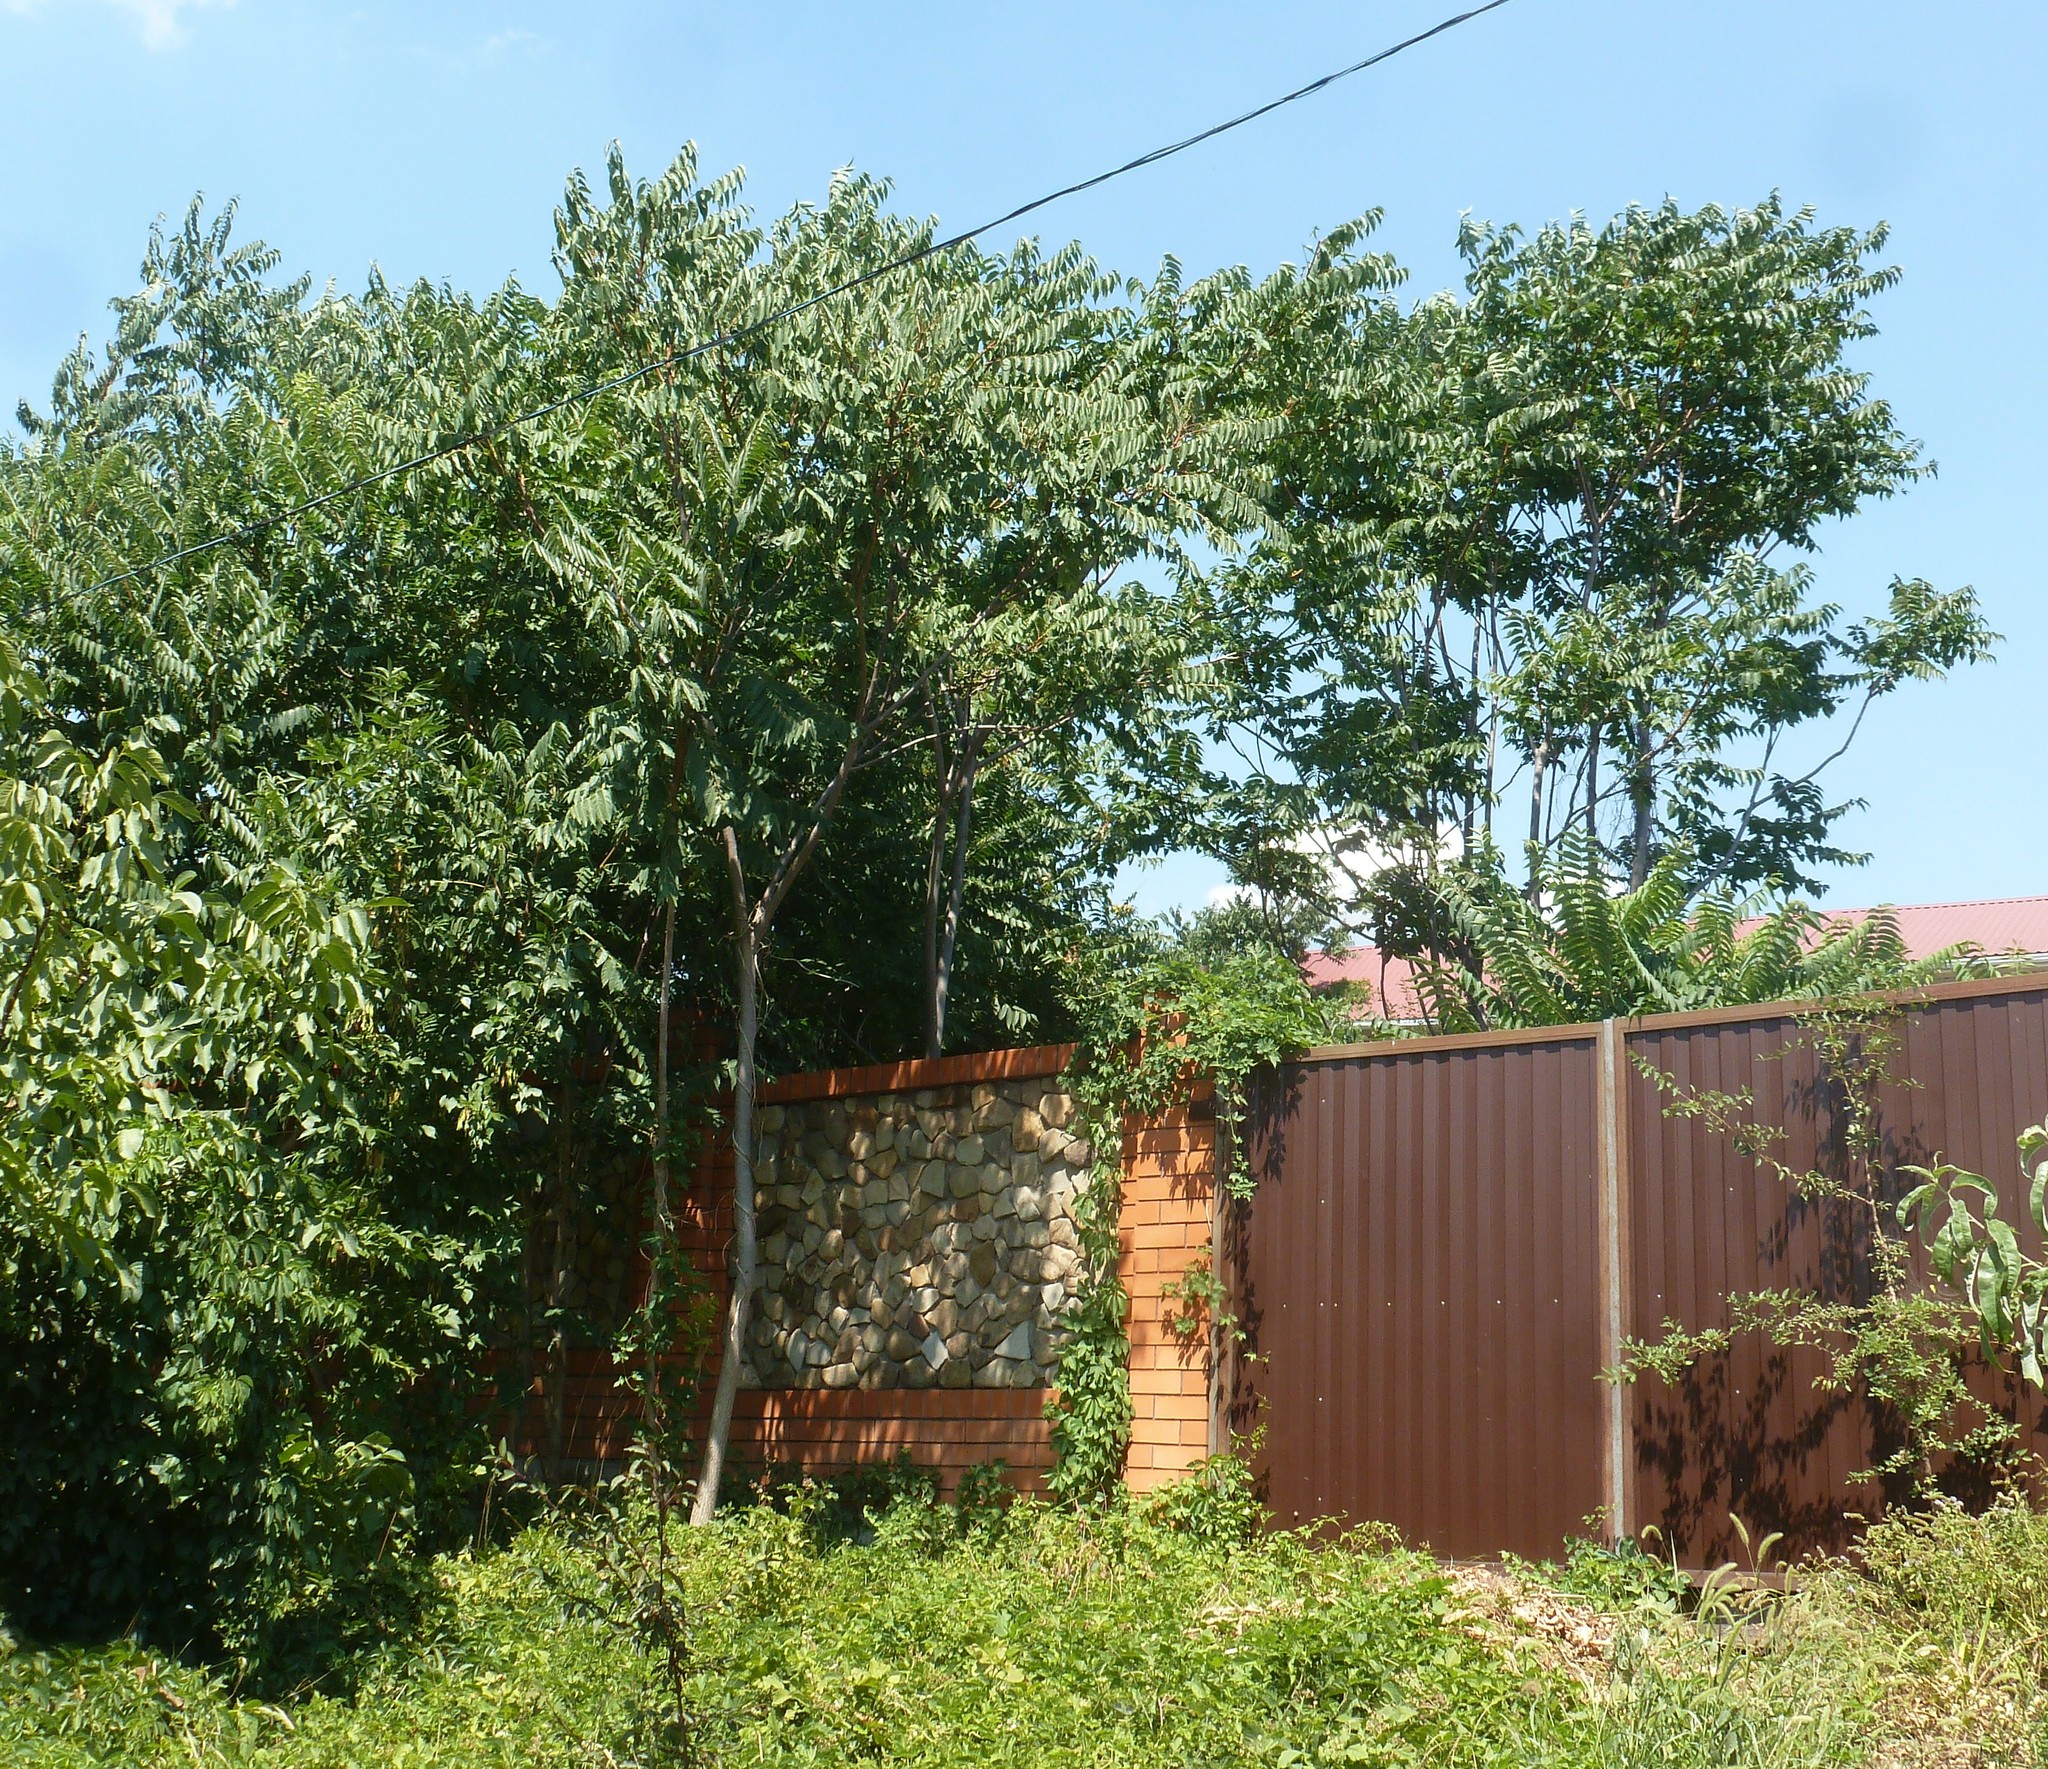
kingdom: Plantae
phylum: Tracheophyta
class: Magnoliopsida
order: Sapindales
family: Simaroubaceae
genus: Ailanthus
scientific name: Ailanthus altissima
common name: Tree-of-heaven
